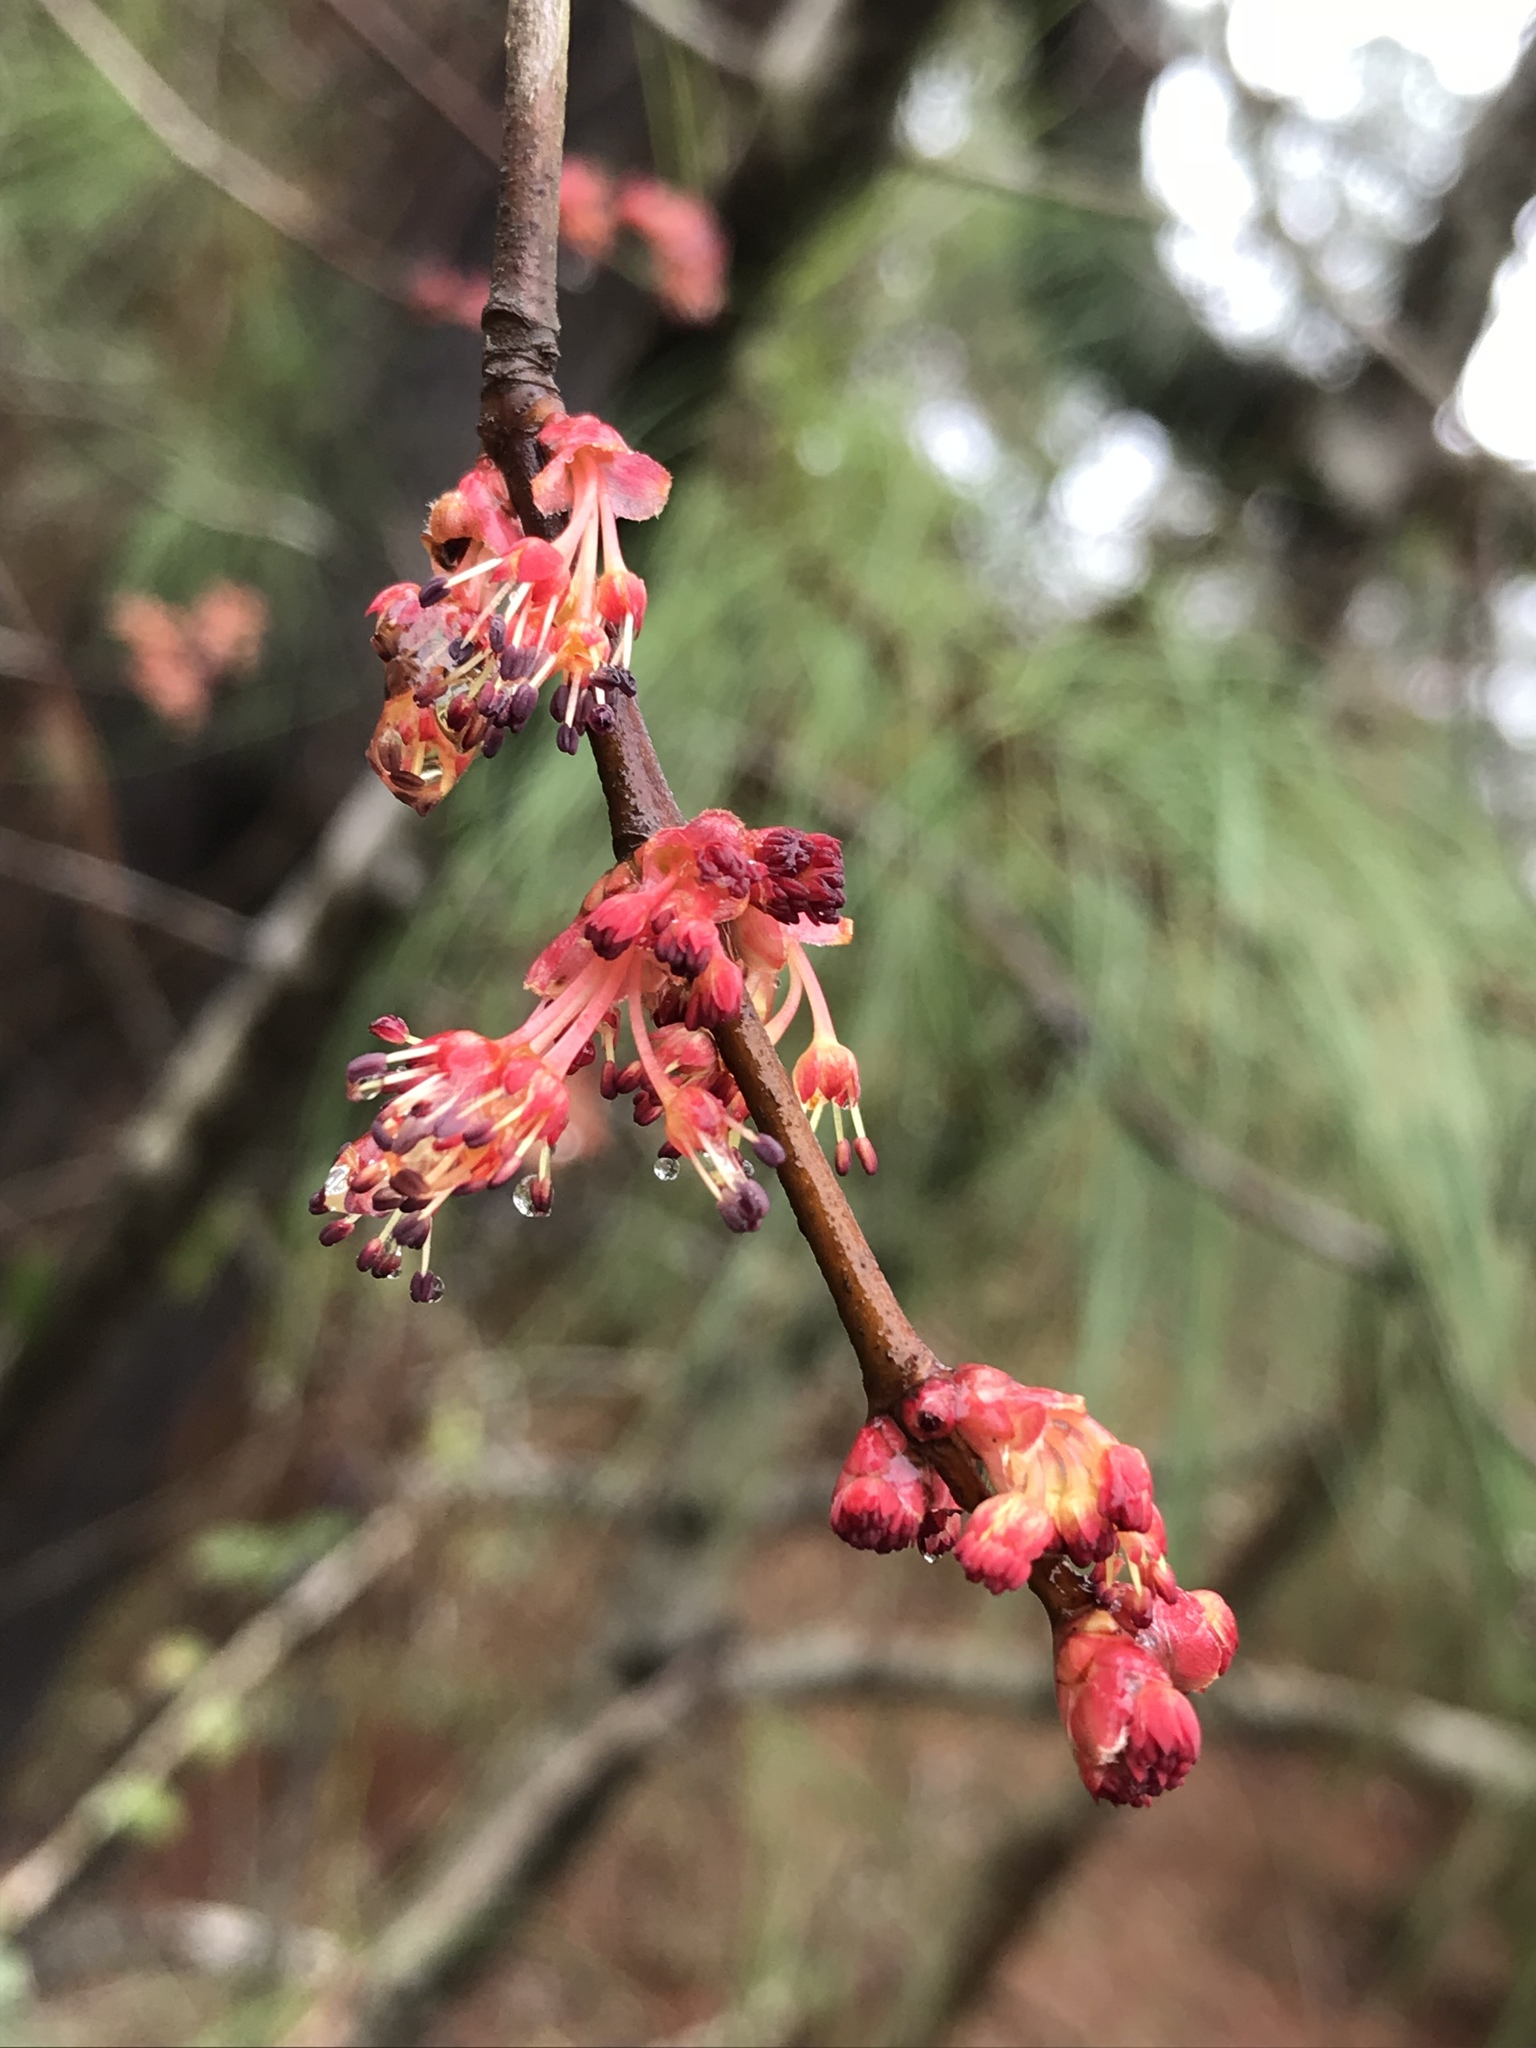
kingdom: Plantae
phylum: Tracheophyta
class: Magnoliopsida
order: Sapindales
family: Sapindaceae
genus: Acer
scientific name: Acer rubrum
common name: Red maple
